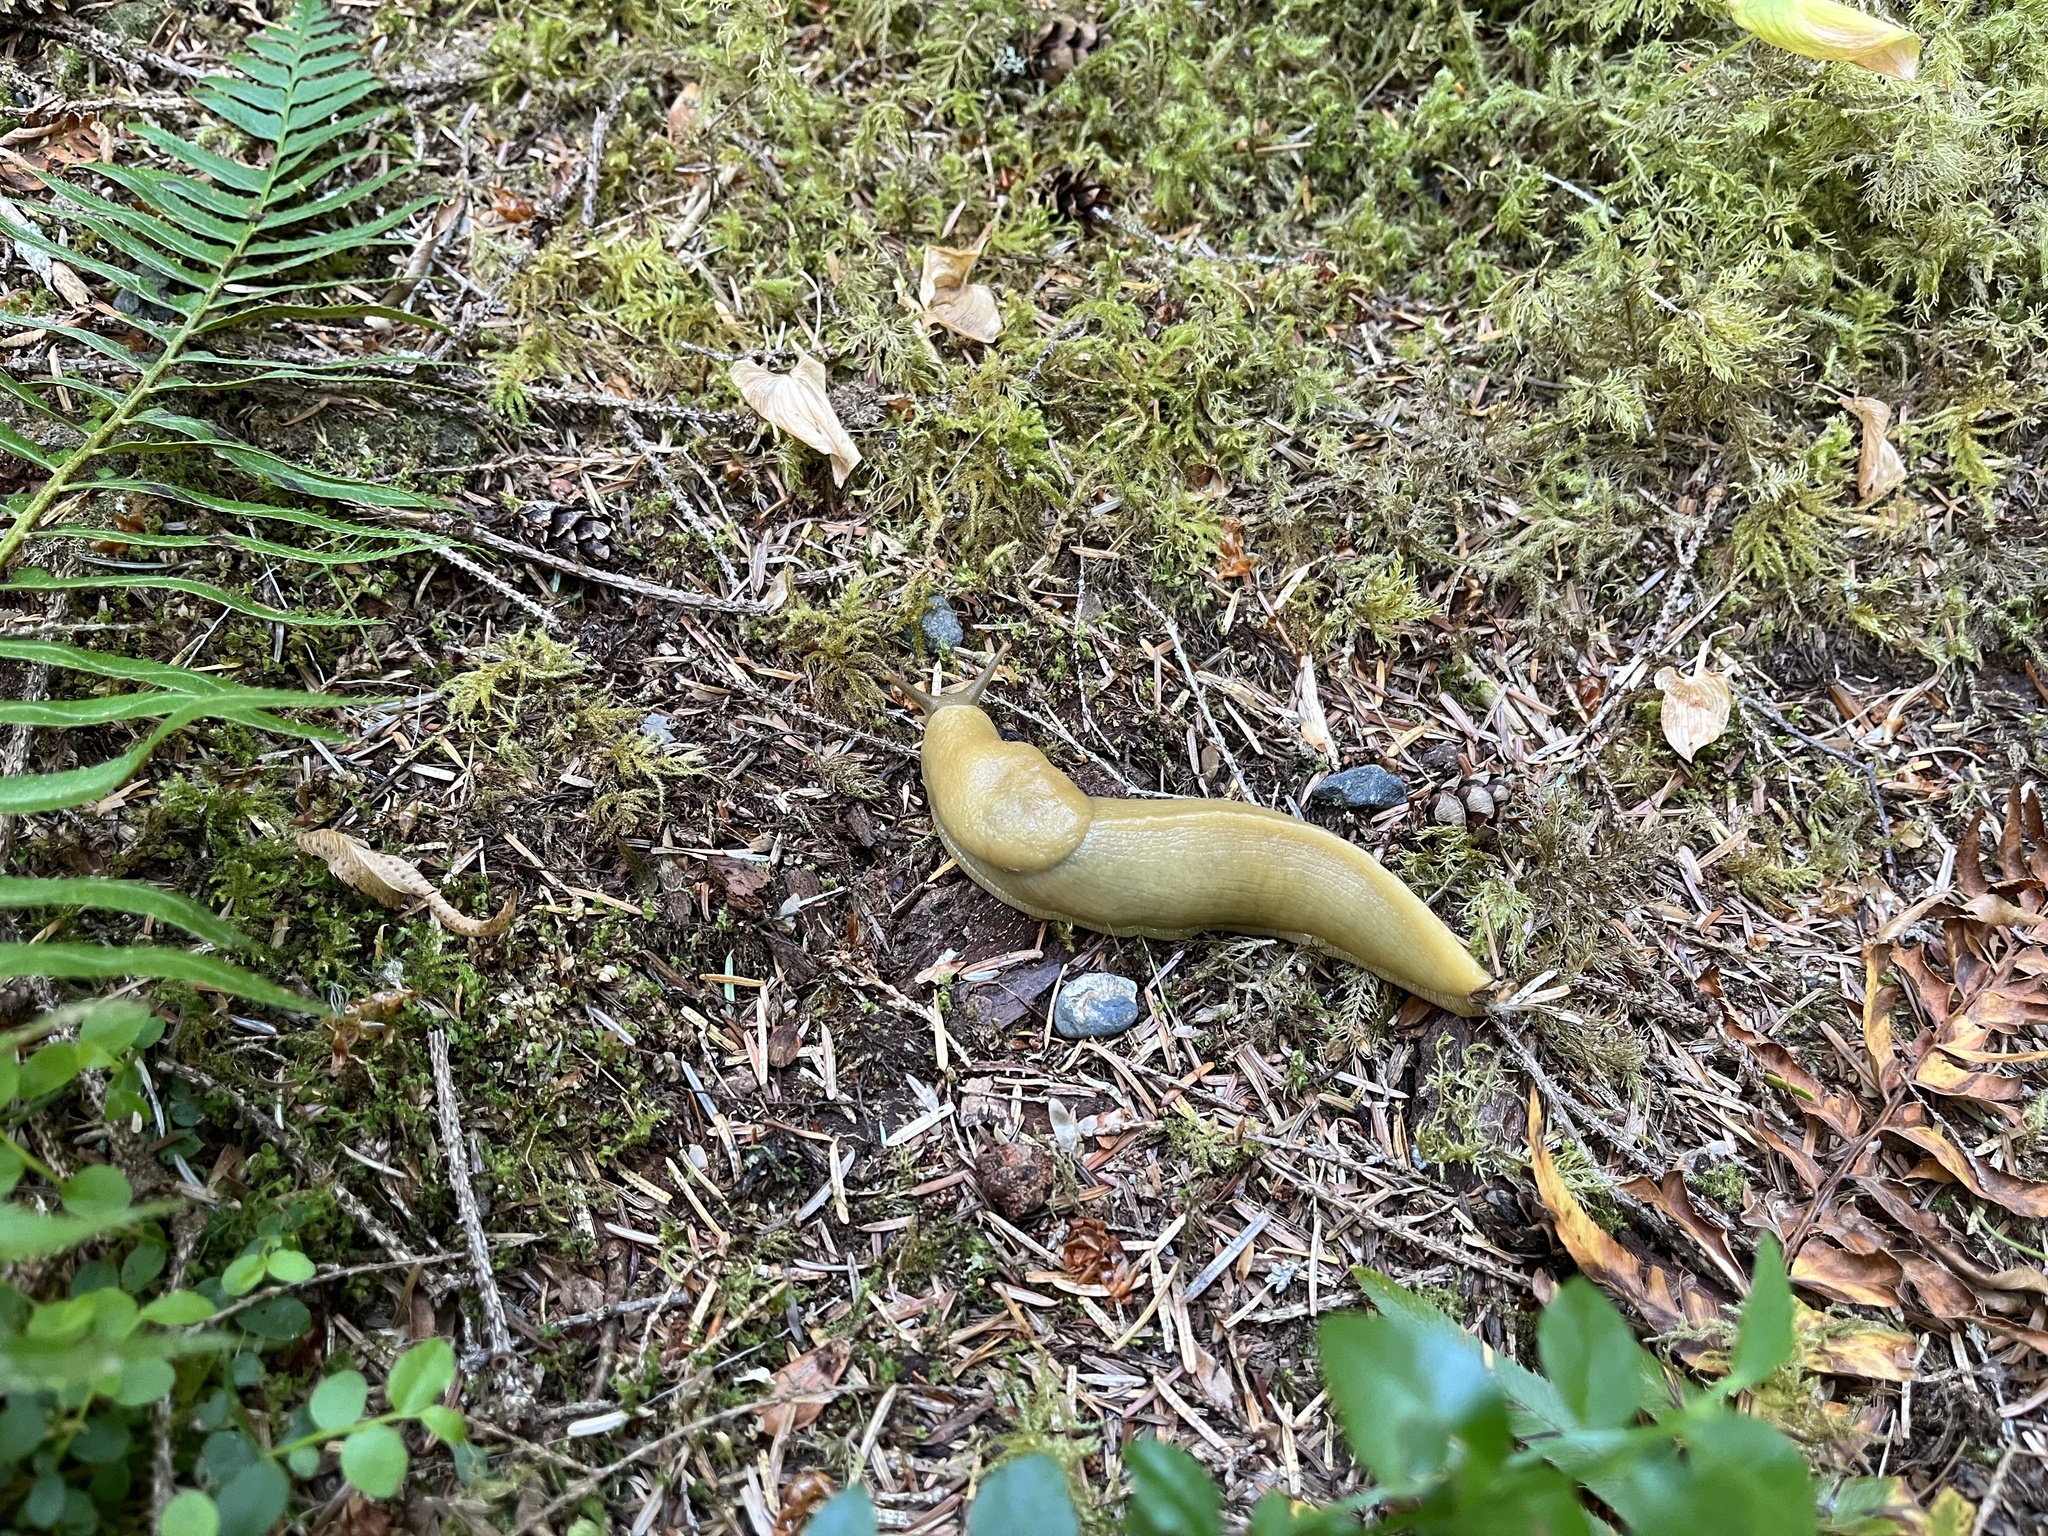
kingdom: Animalia
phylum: Mollusca
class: Gastropoda
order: Stylommatophora
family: Ariolimacidae
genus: Ariolimax
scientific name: Ariolimax columbianus
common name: Pacific banana slug
